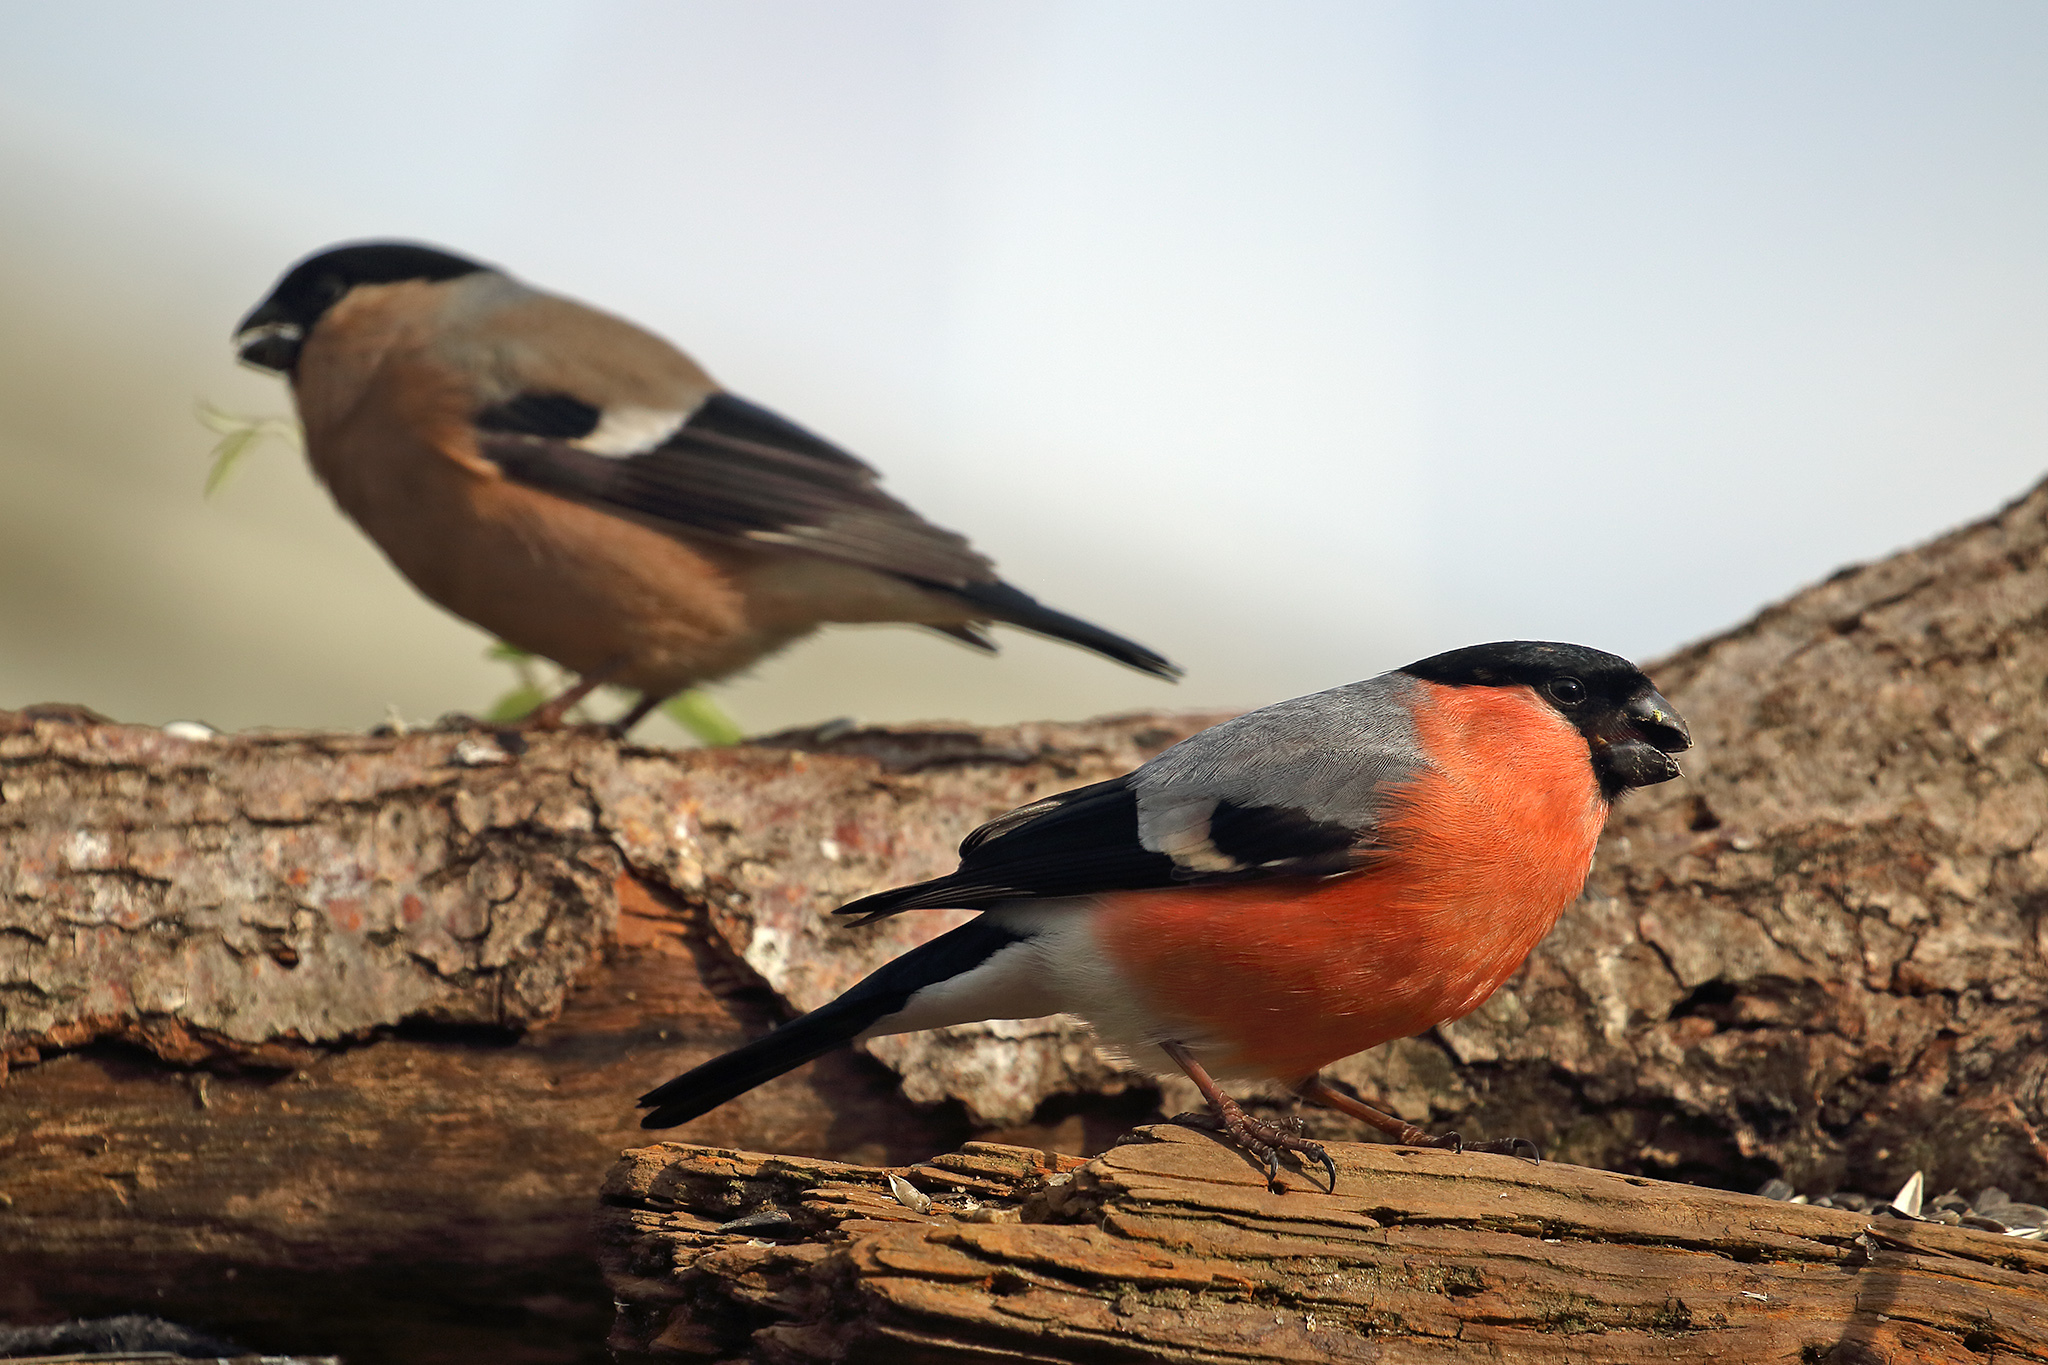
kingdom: Animalia
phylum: Chordata
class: Aves
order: Passeriformes
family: Fringillidae
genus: Pyrrhula
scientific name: Pyrrhula pyrrhula
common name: Eurasian bullfinch
